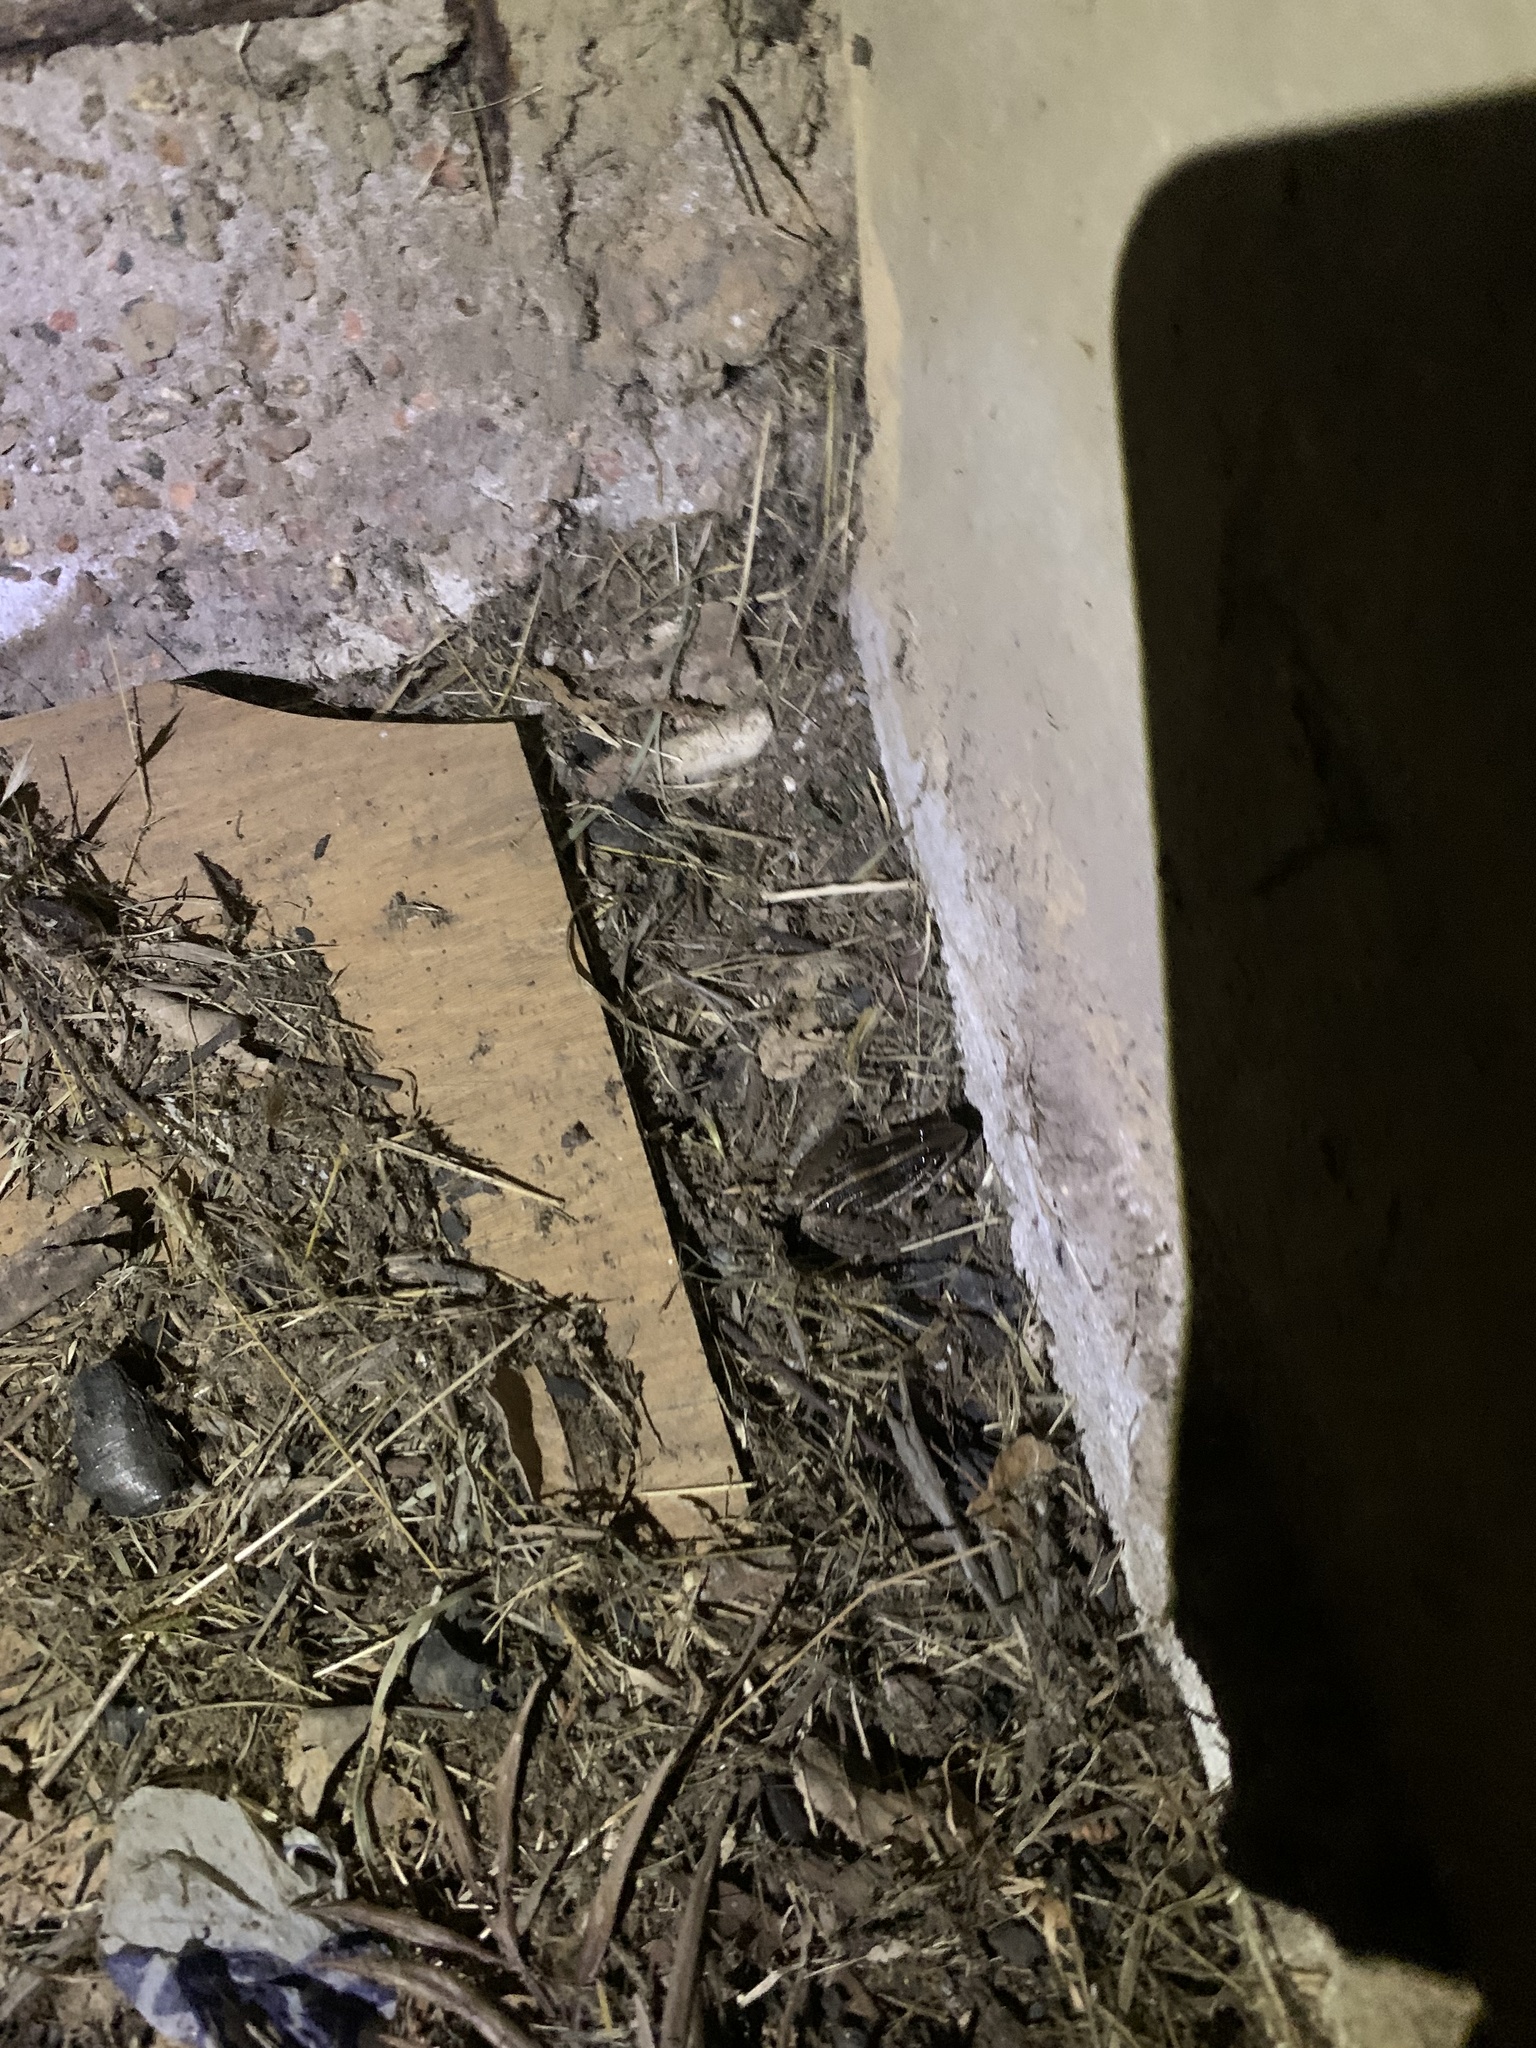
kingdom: Animalia
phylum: Chordata
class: Amphibia
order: Anura
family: Leptodactylidae
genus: Leptodactylus
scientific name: Leptodactylus gracilis
